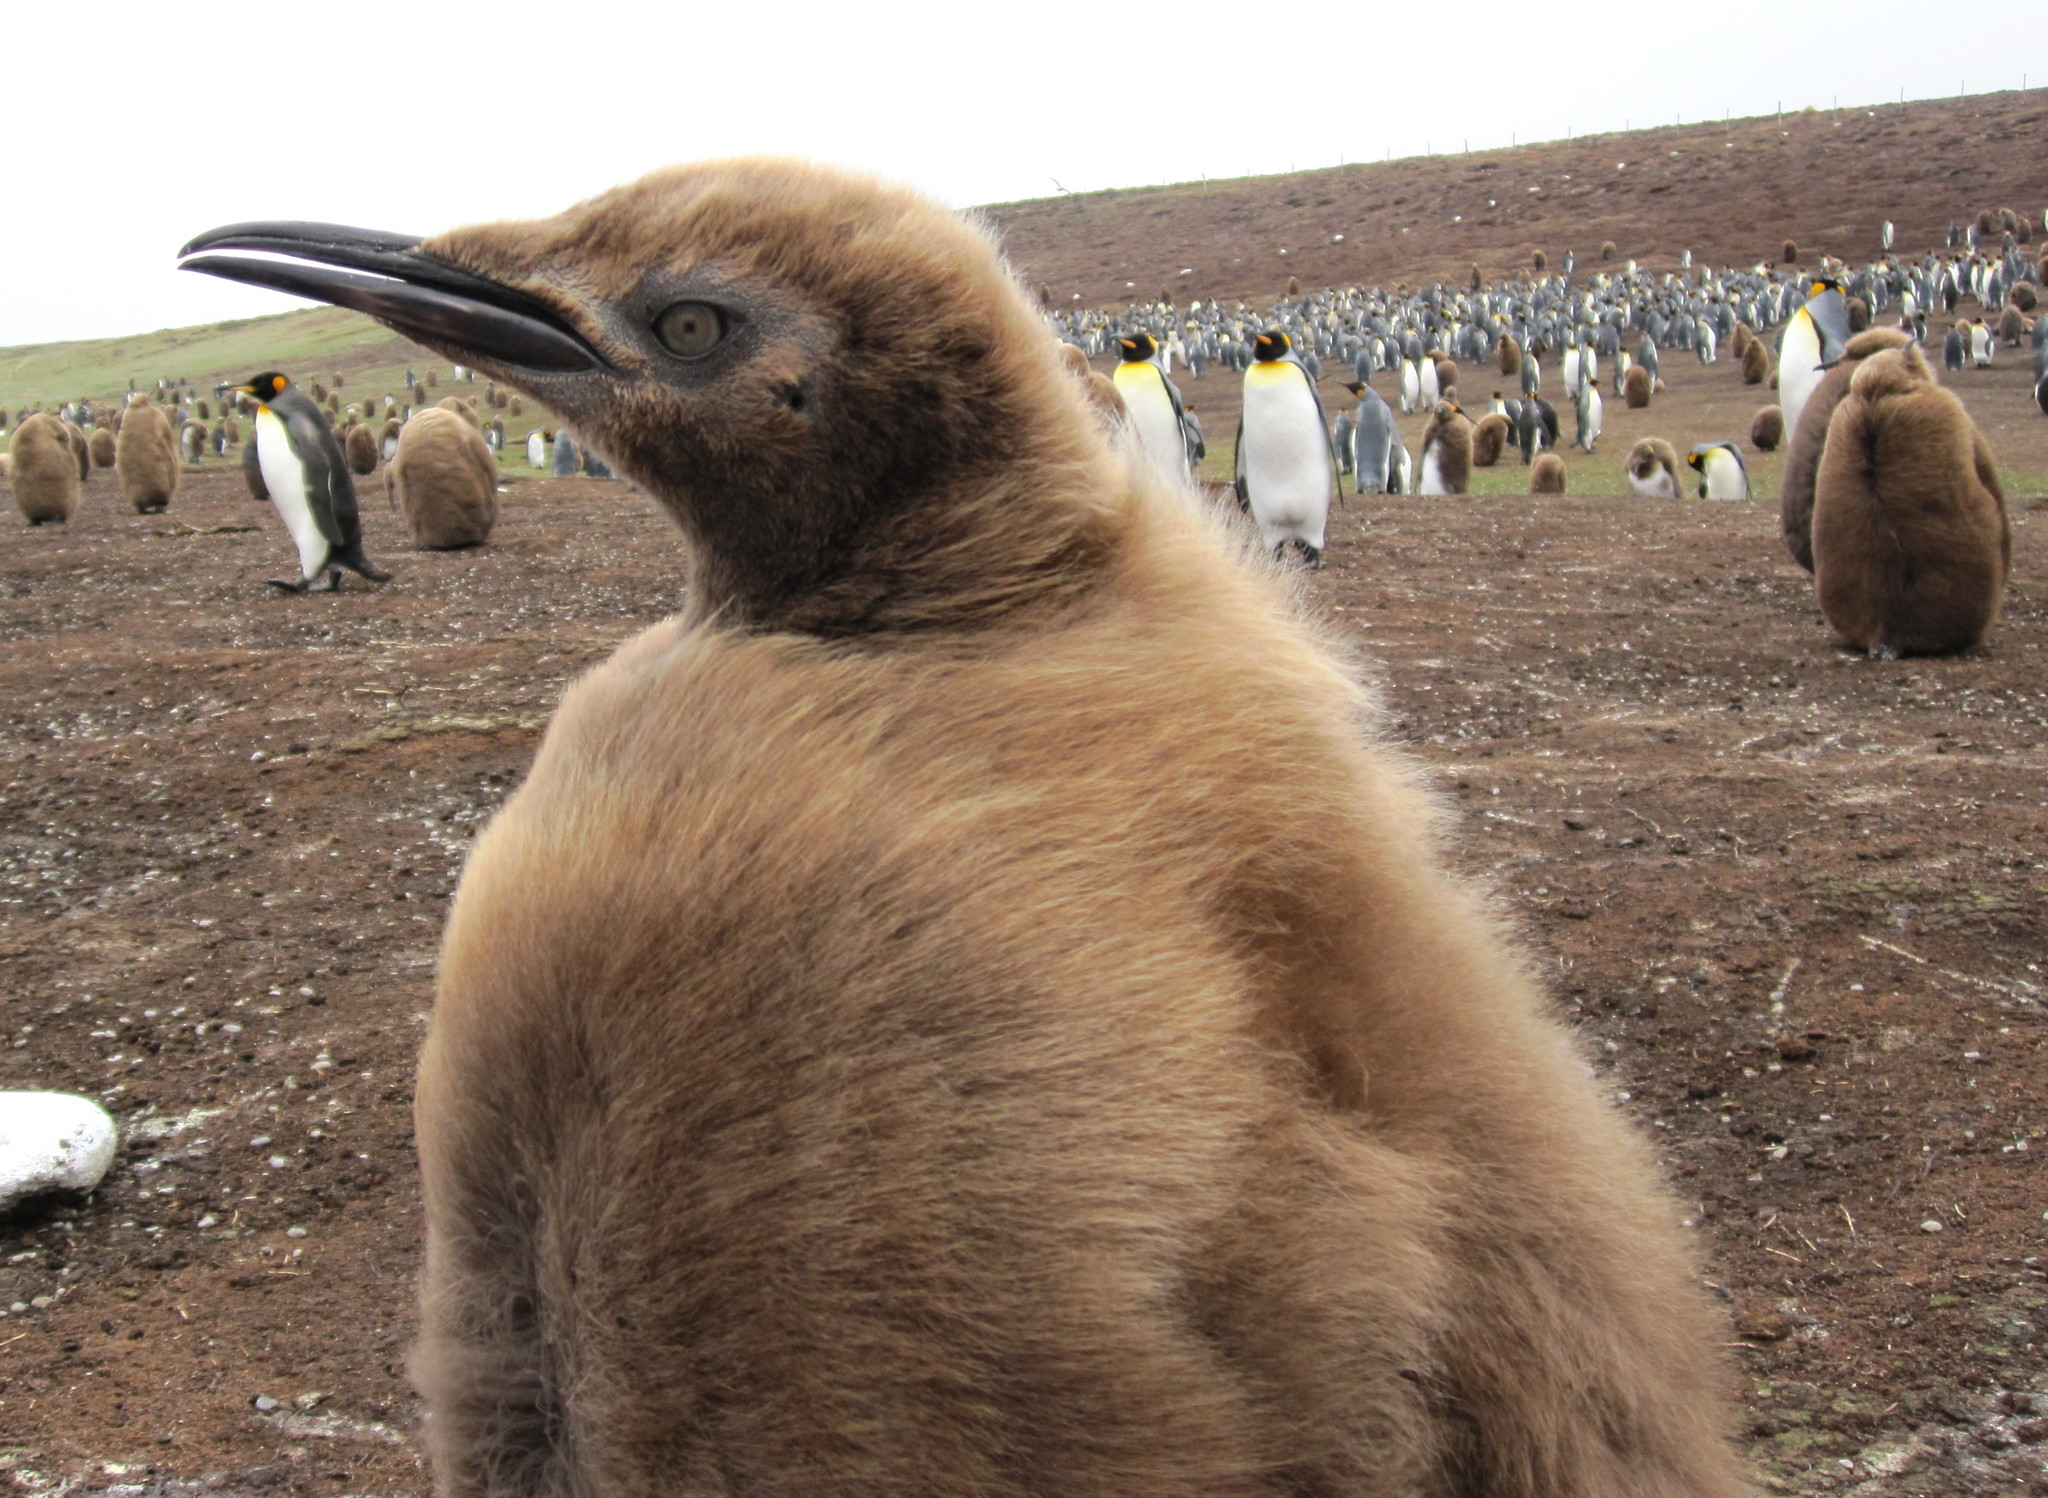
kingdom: Animalia
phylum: Chordata
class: Aves
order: Sphenisciformes
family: Spheniscidae
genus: Aptenodytes
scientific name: Aptenodytes patagonicus
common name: King penguin
